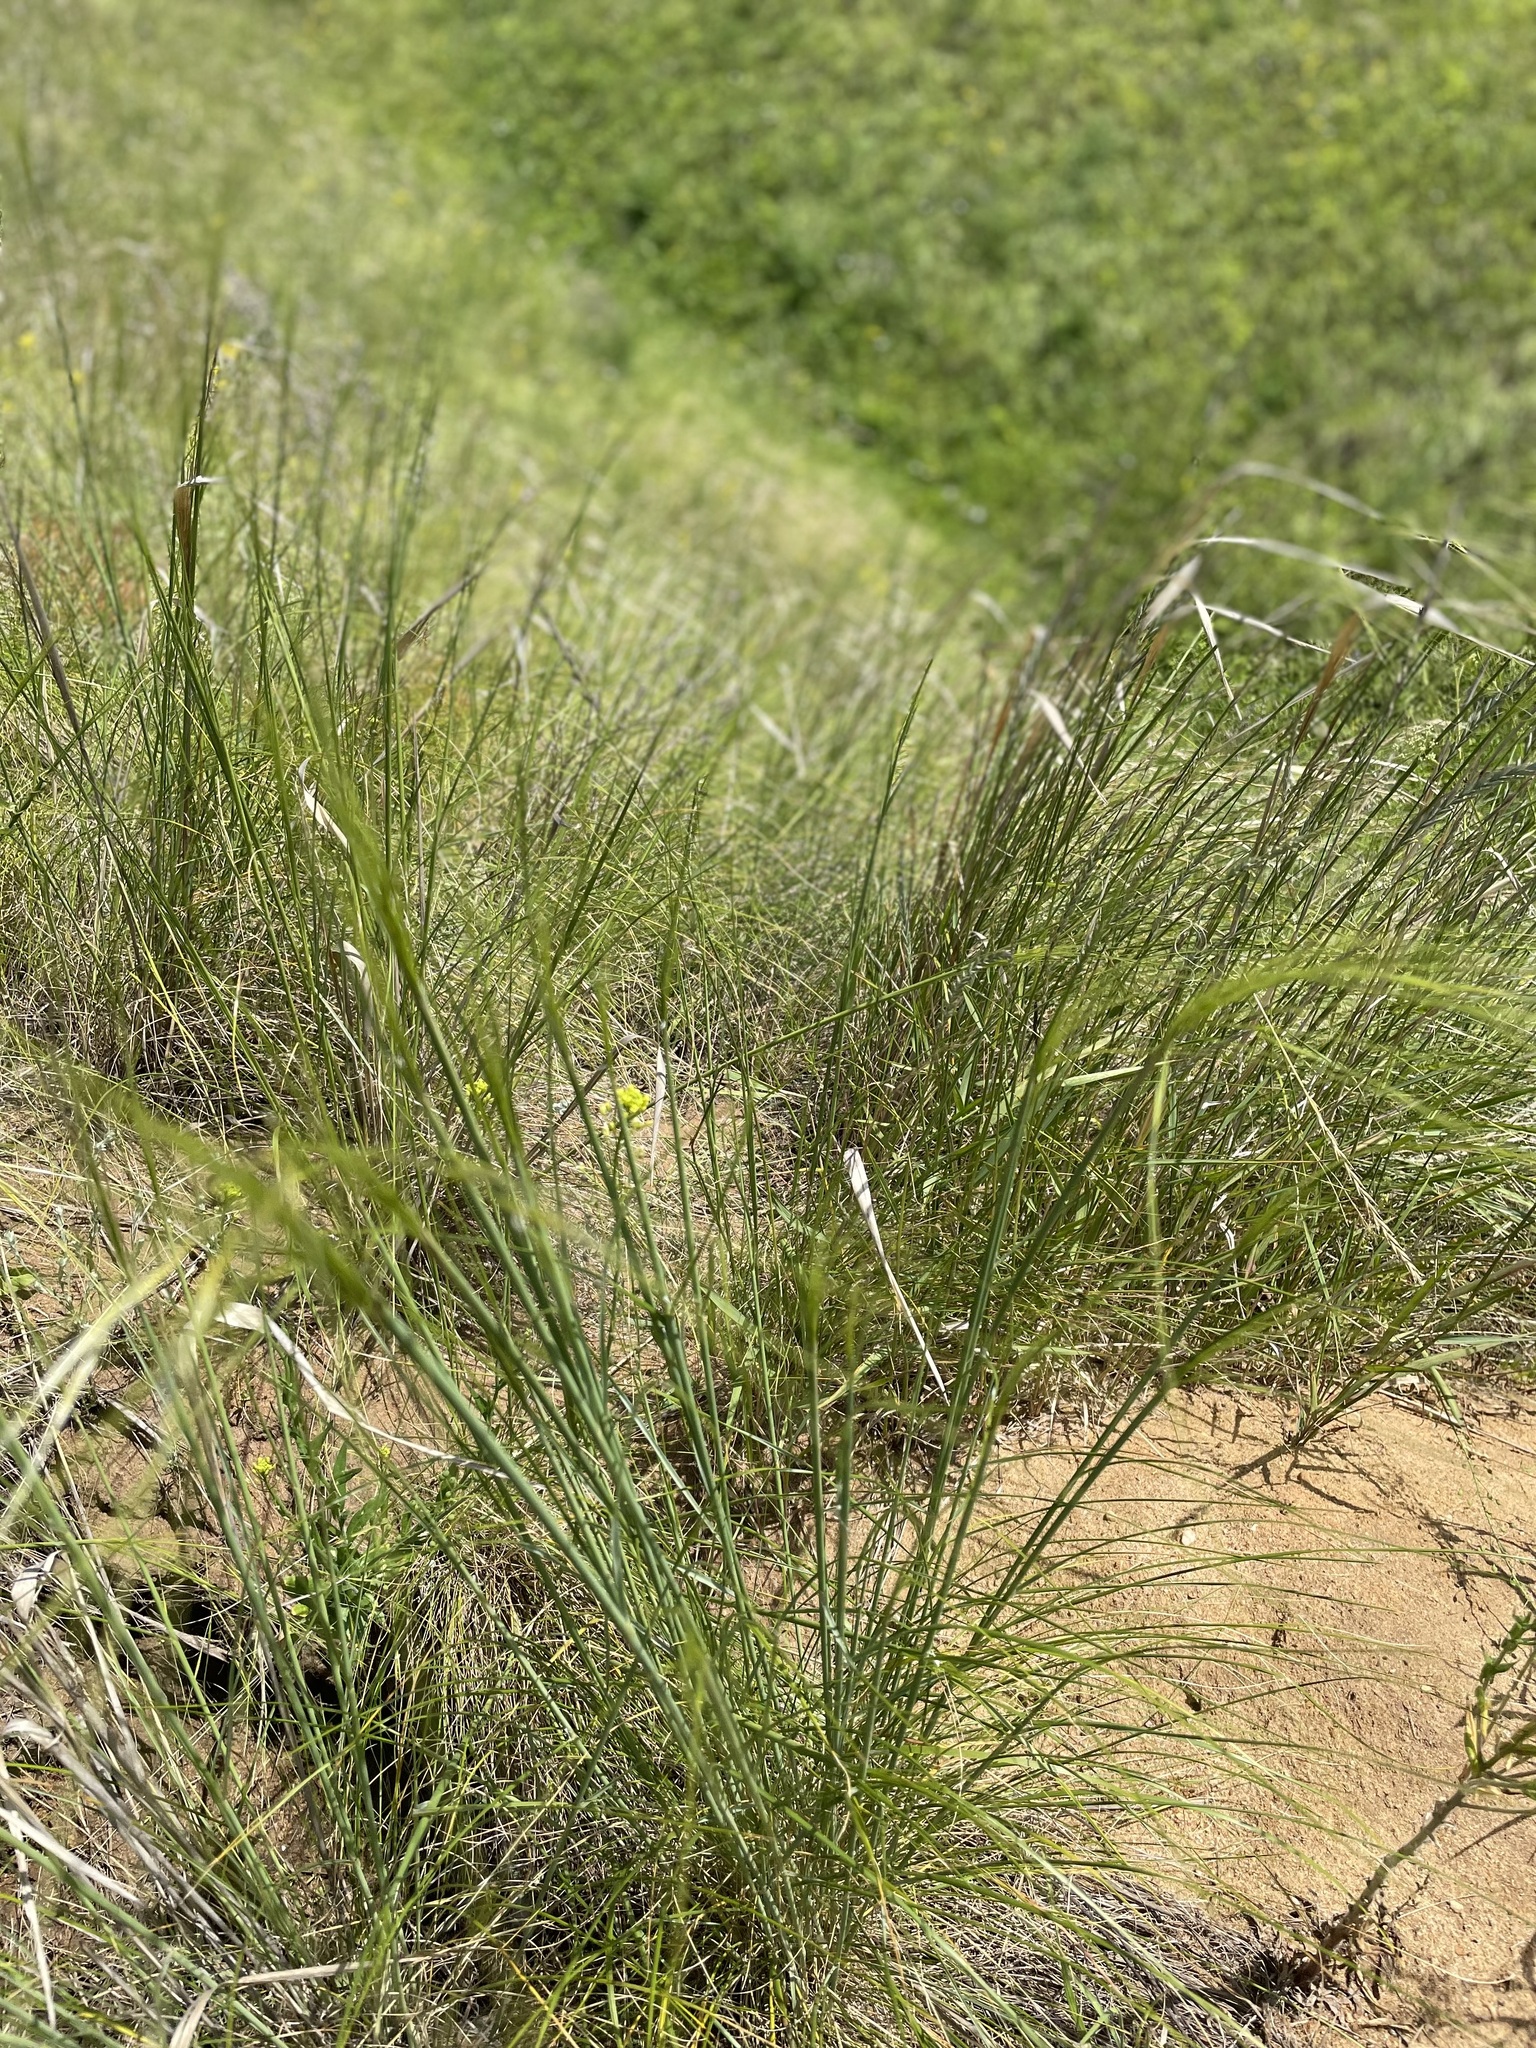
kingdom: Plantae
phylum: Tracheophyta
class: Liliopsida
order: Poales
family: Poaceae
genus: Stipa
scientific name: Stipa capillata
